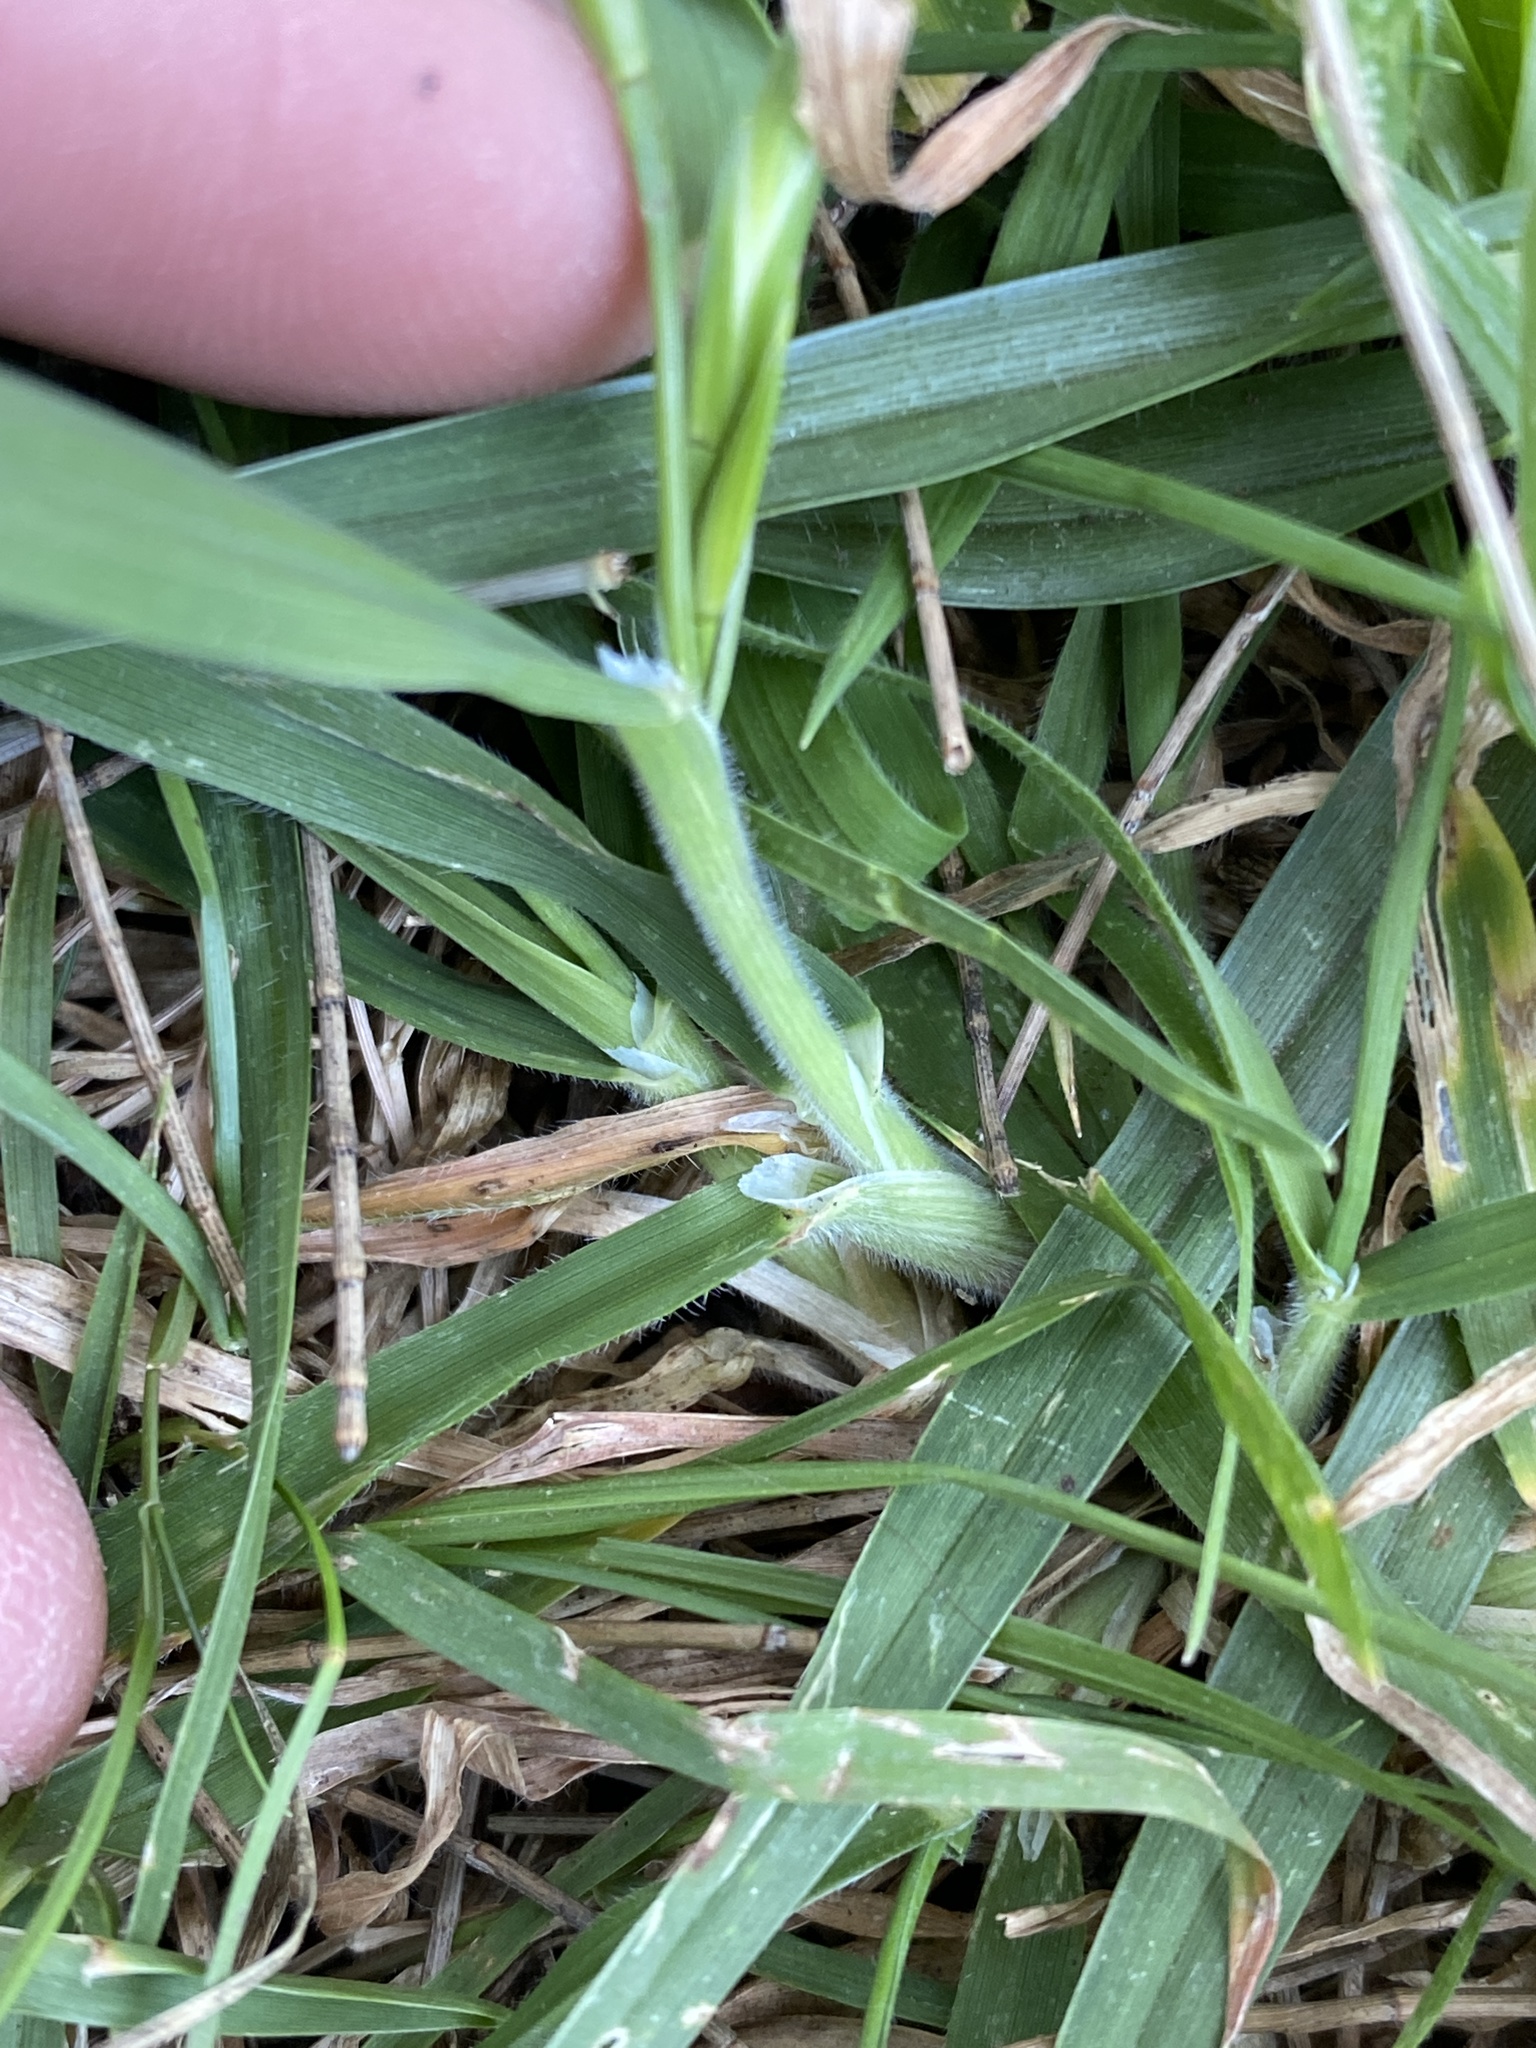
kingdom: Plantae
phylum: Tracheophyta
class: Liliopsida
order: Poales
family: Poaceae
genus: Bromus
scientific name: Bromus catharticus
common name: Rescuegrass
